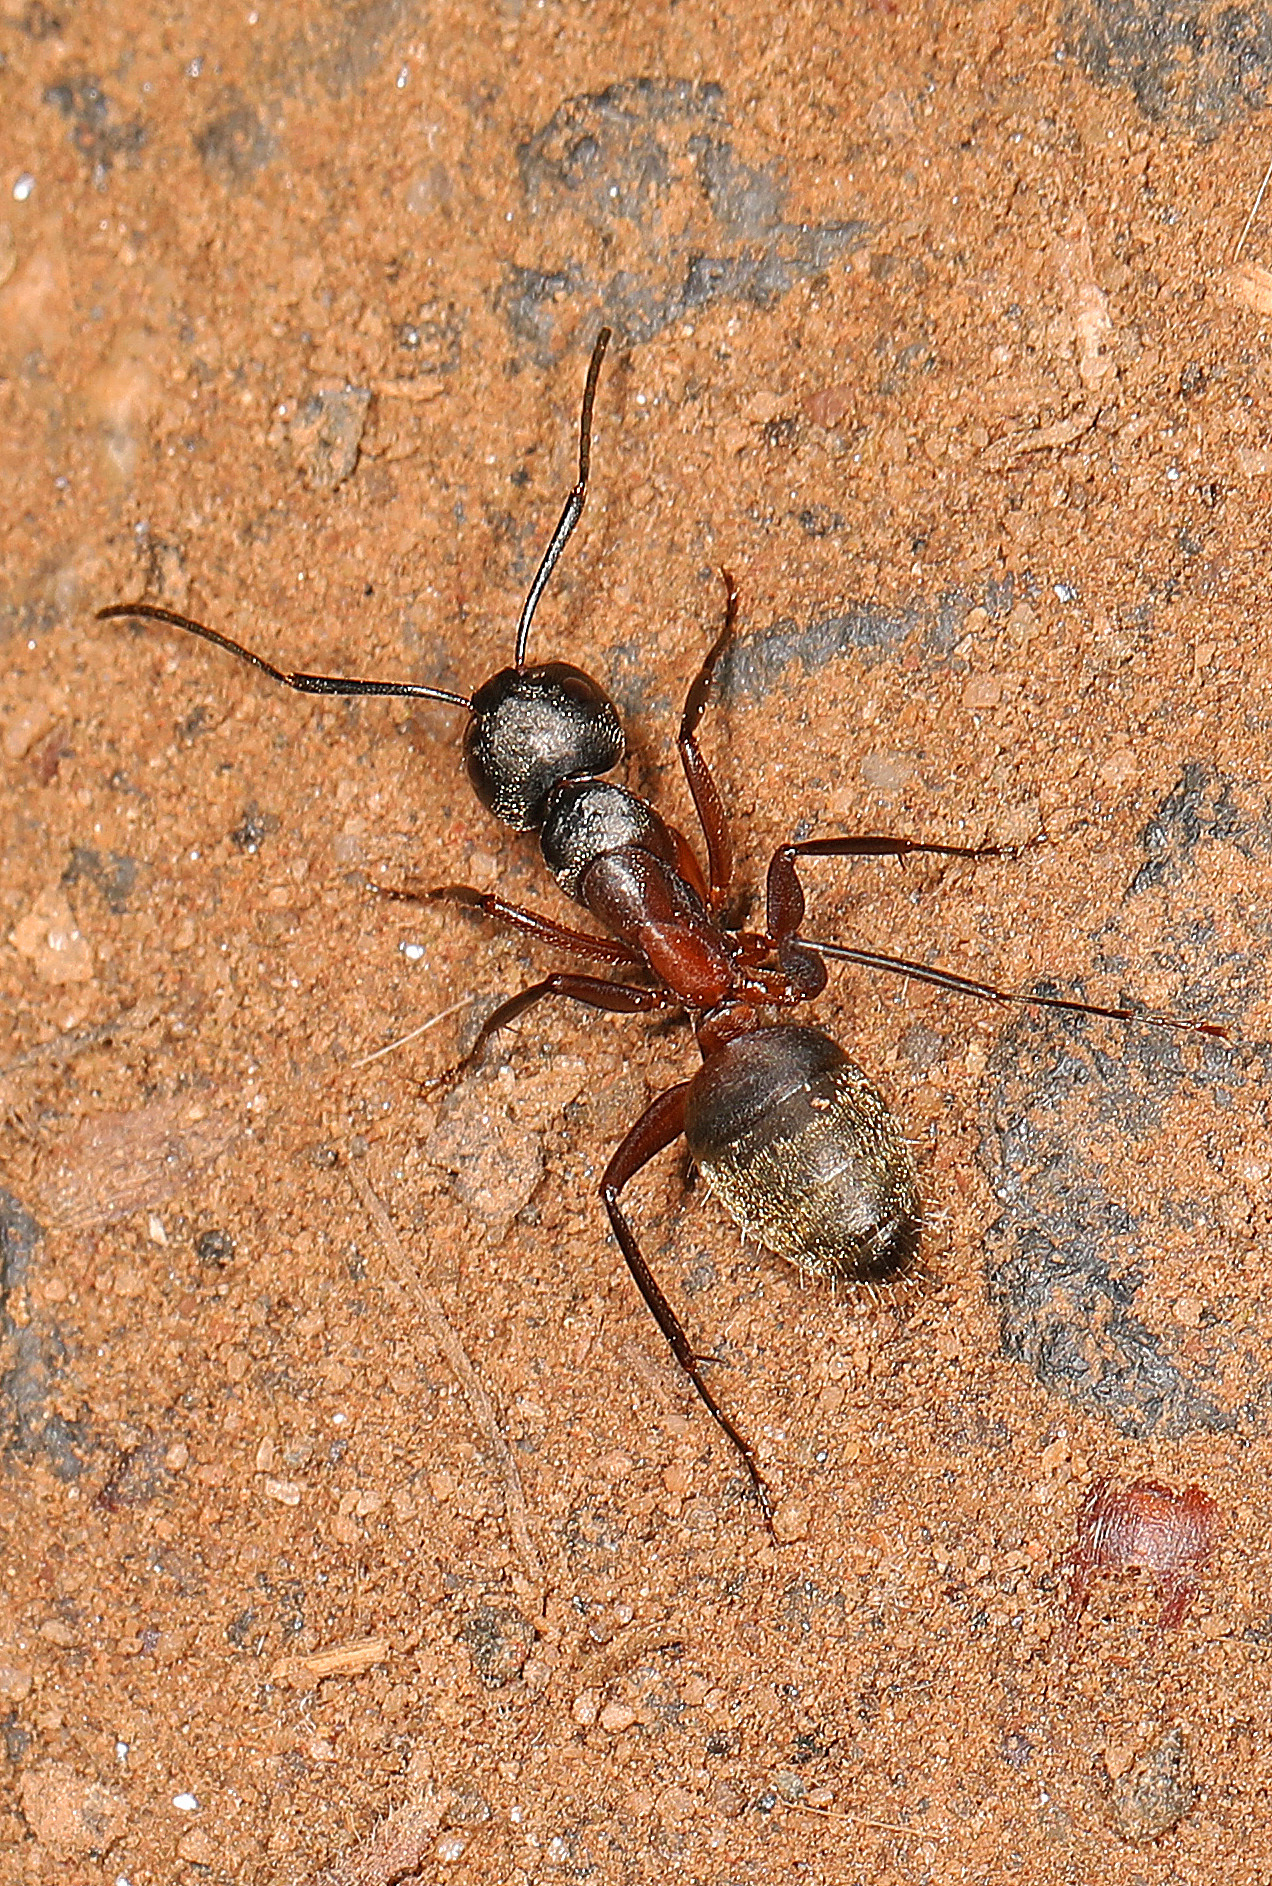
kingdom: Animalia
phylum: Arthropoda
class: Insecta
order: Hymenoptera
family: Formicidae
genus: Camponotus
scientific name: Camponotus chromaiodes
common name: Red carpenter ant
